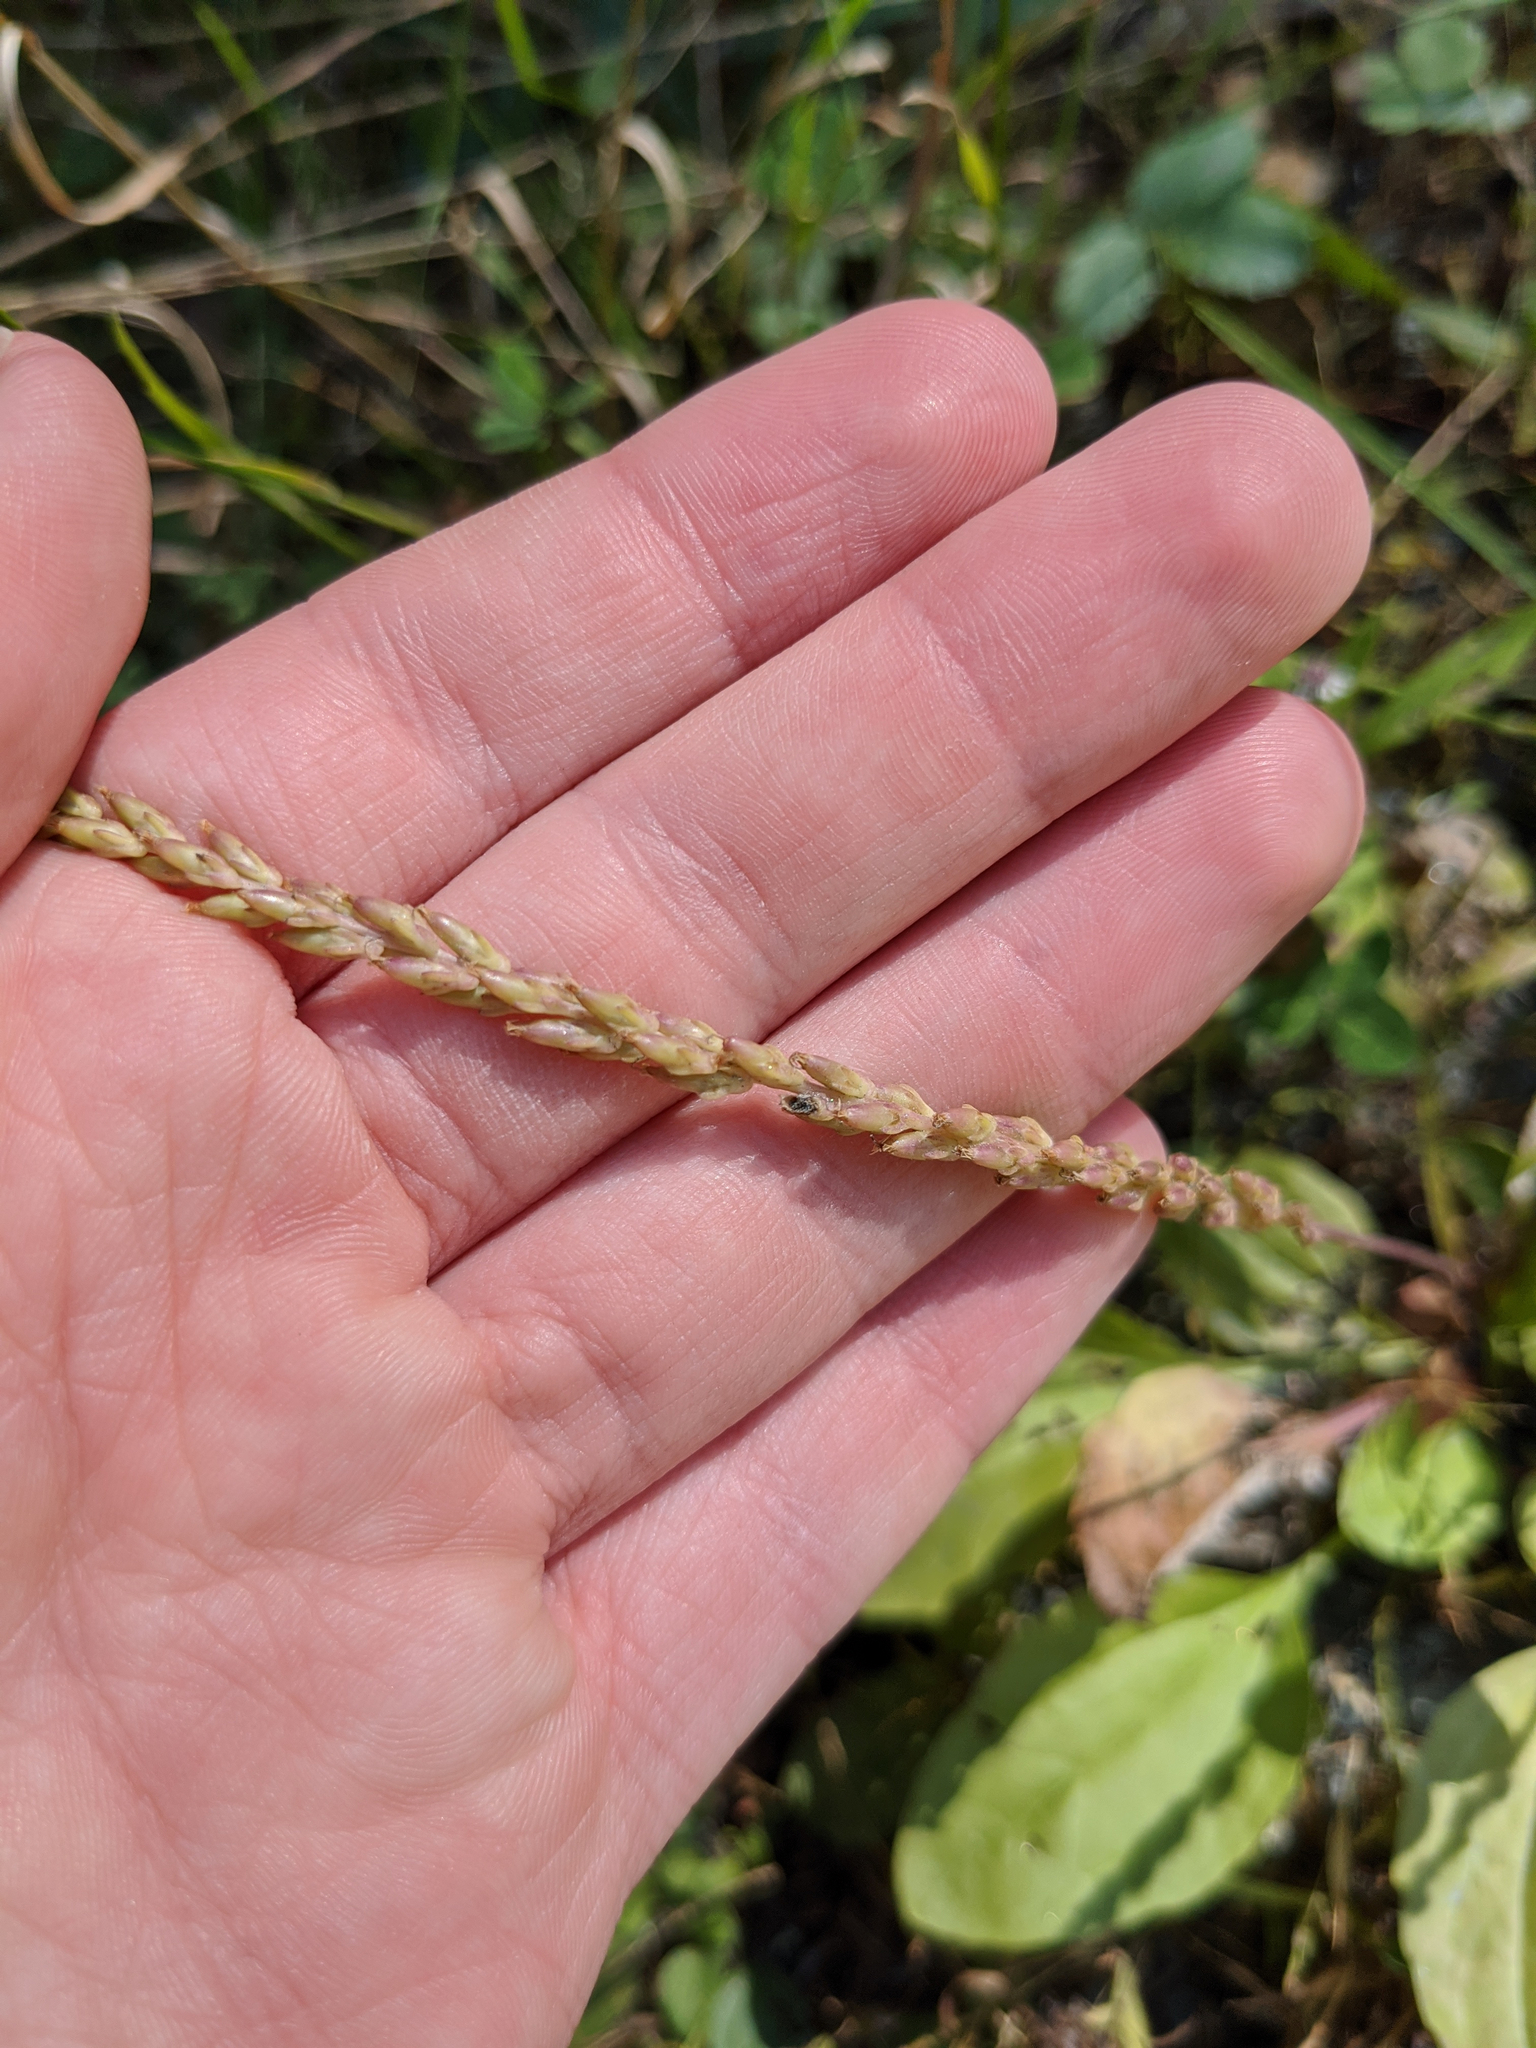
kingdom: Plantae
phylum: Tracheophyta
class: Magnoliopsida
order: Lamiales
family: Plantaginaceae
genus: Plantago
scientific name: Plantago major
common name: Common plantain
